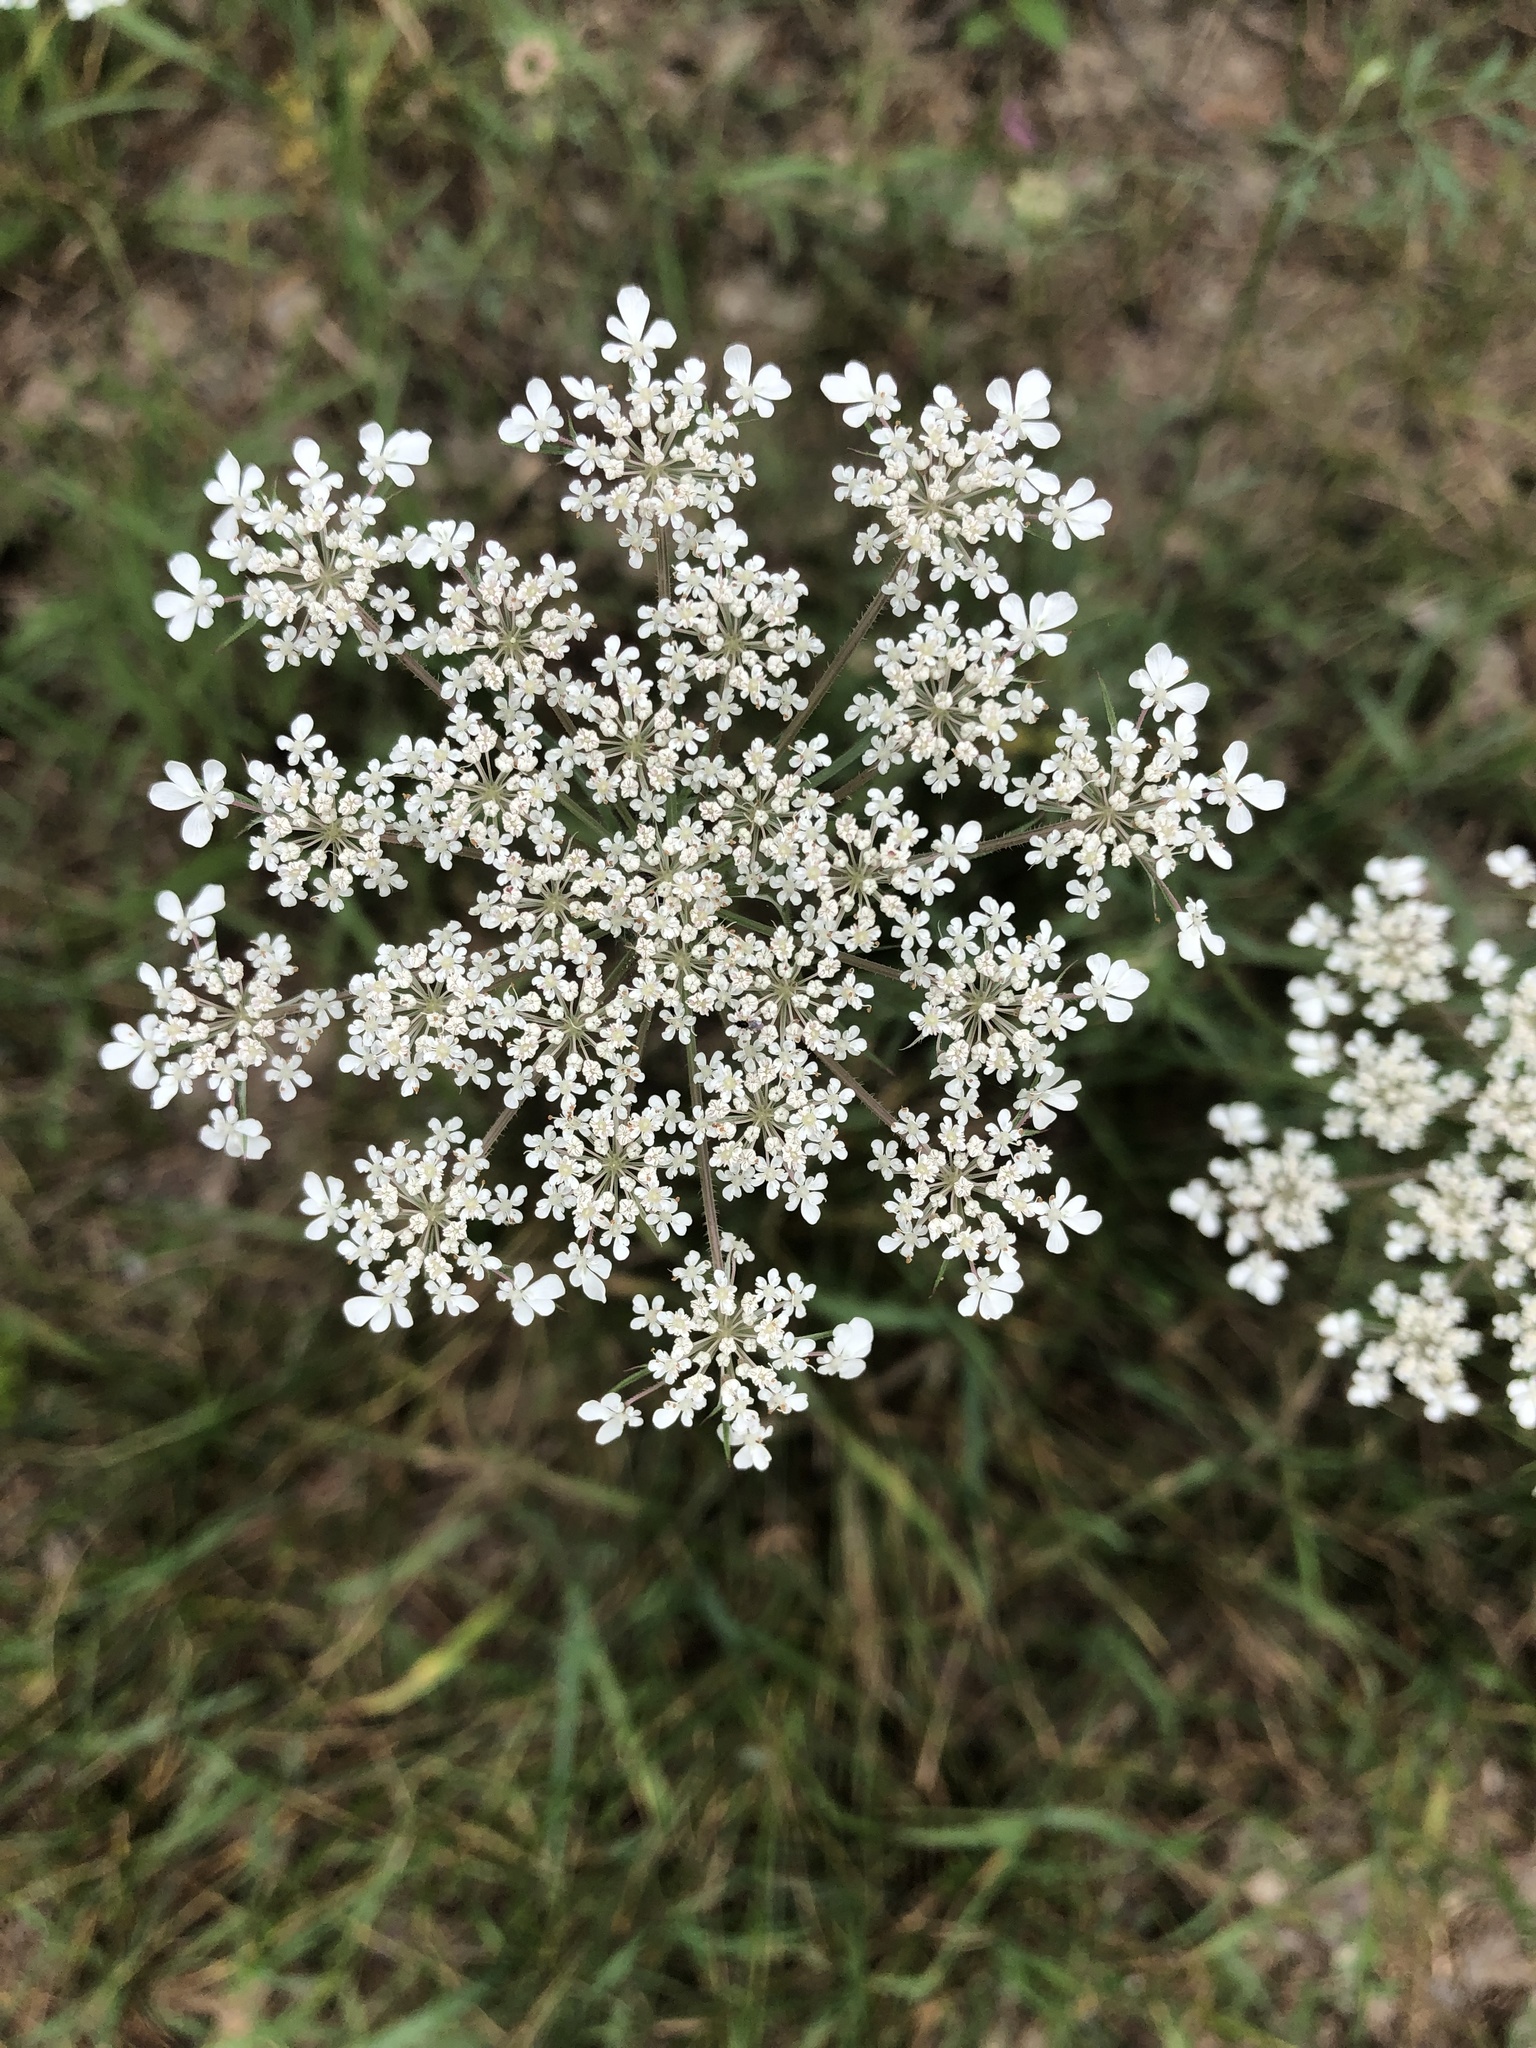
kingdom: Plantae
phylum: Tracheophyta
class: Magnoliopsida
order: Apiales
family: Apiaceae
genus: Daucus
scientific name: Daucus carota
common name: Wild carrot
